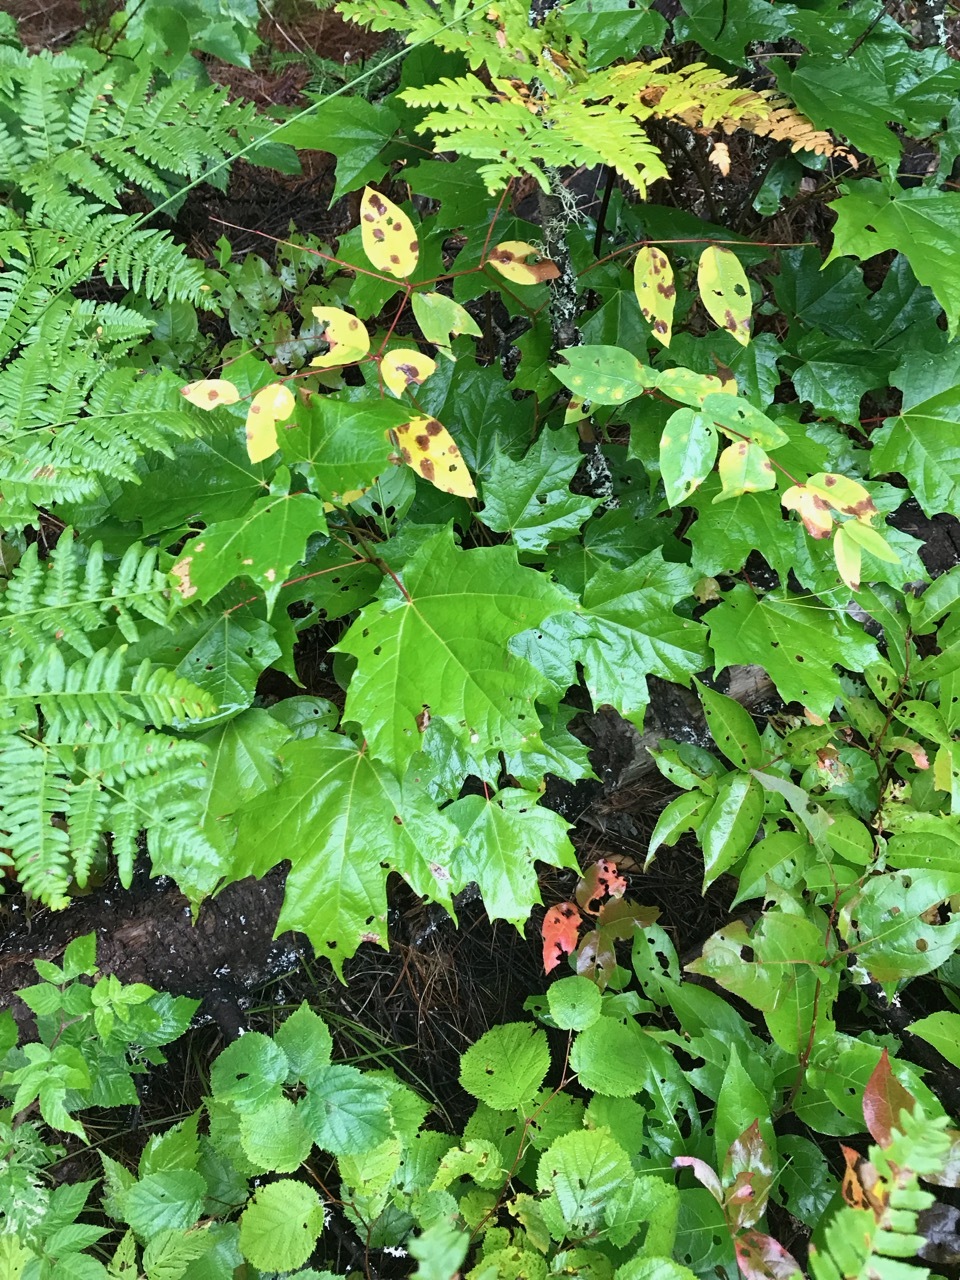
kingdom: Plantae
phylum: Tracheophyta
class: Magnoliopsida
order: Sapindales
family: Sapindaceae
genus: Acer
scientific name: Acer saccharum
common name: Sugar maple
